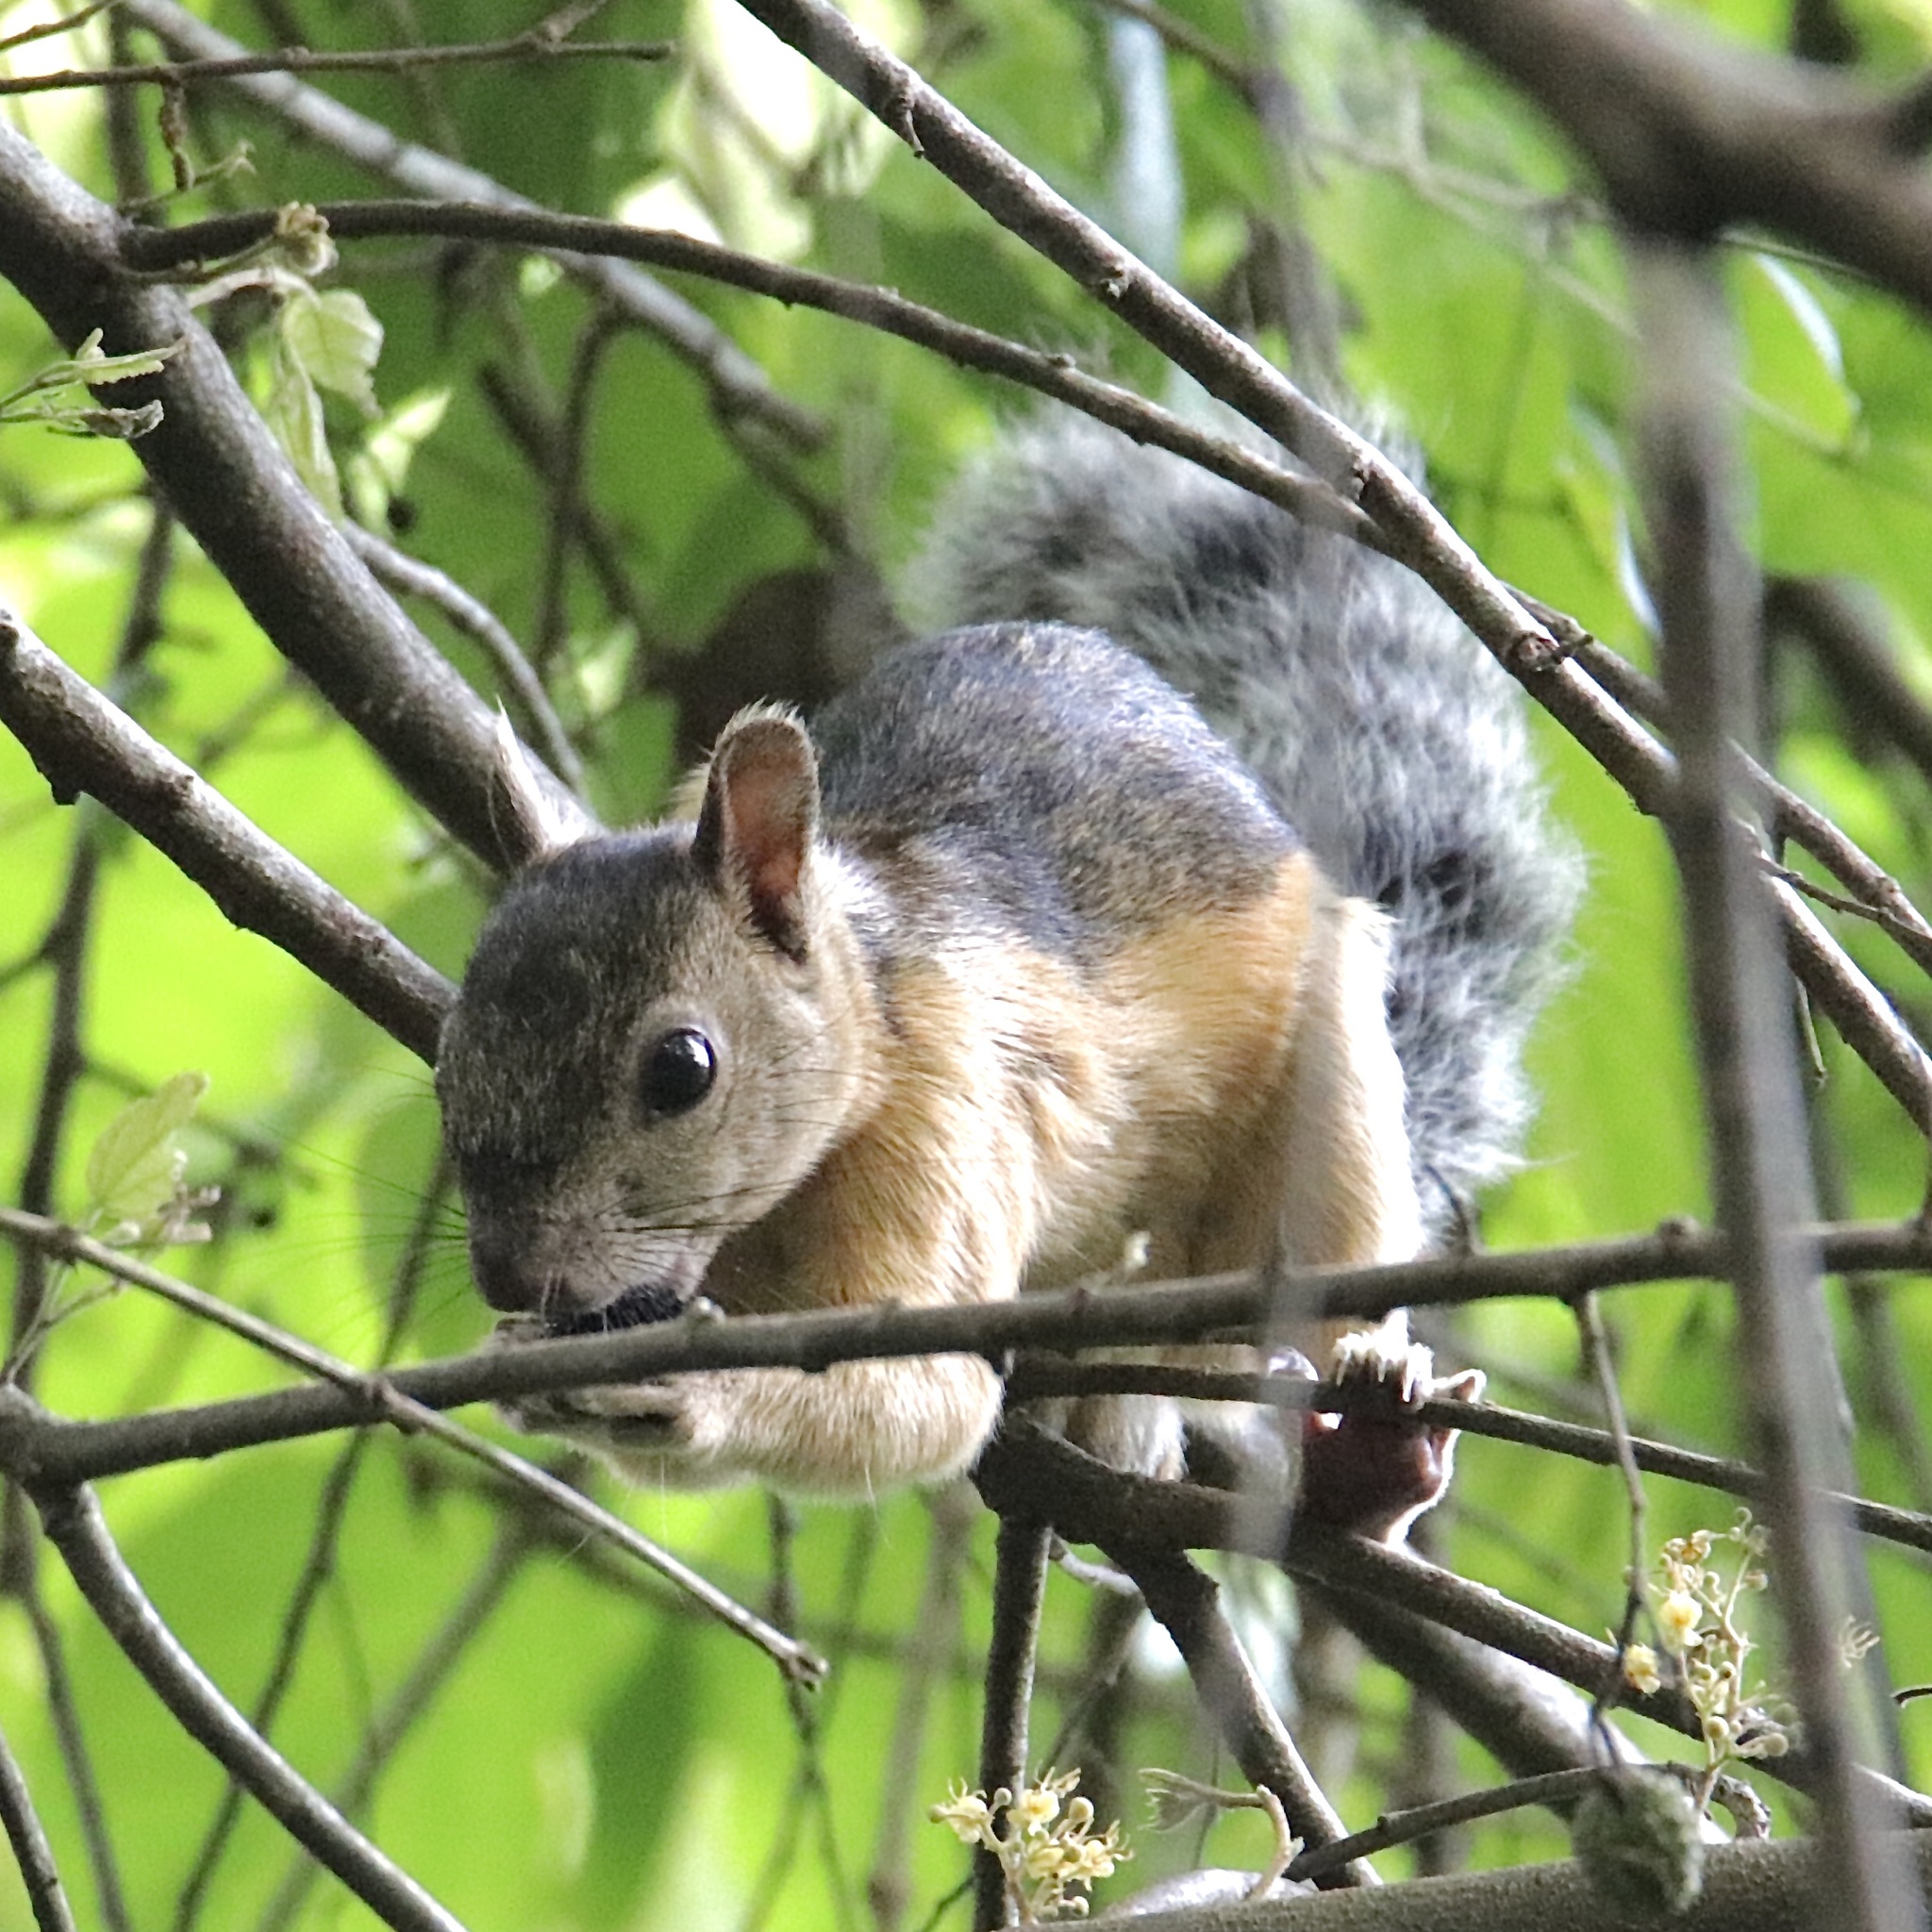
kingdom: Animalia
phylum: Chordata
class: Mammalia
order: Rodentia
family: Sciuridae
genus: Sciurus
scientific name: Sciurus variegatoides
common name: Variegated squirrel
